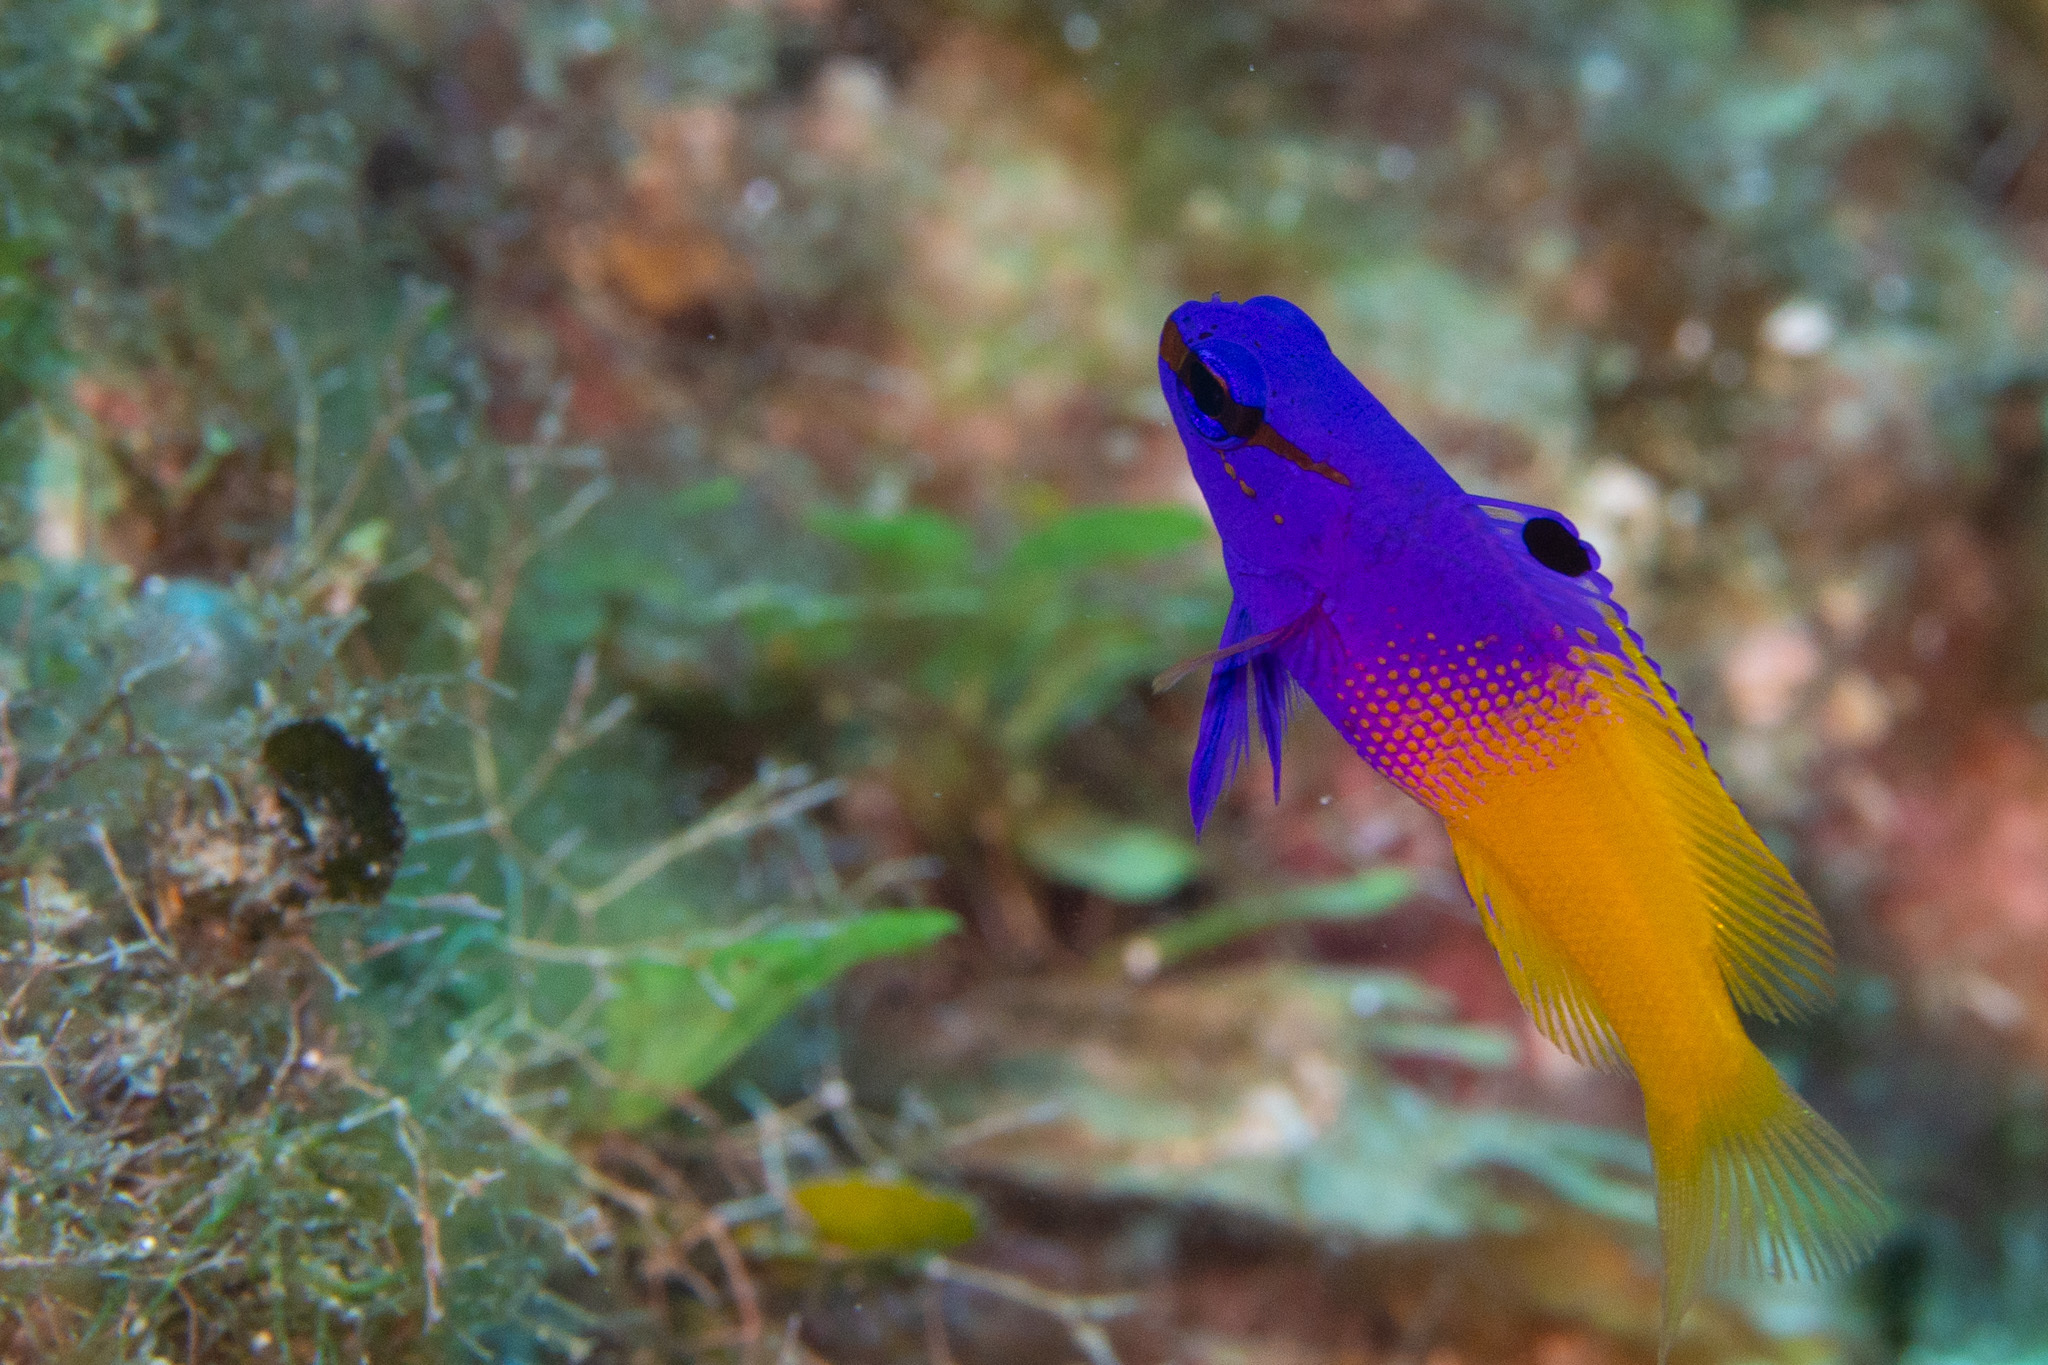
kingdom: Animalia
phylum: Chordata
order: Perciformes
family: Grammatidae
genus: Gramma
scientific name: Gramma loreto
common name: Fairy basslet
